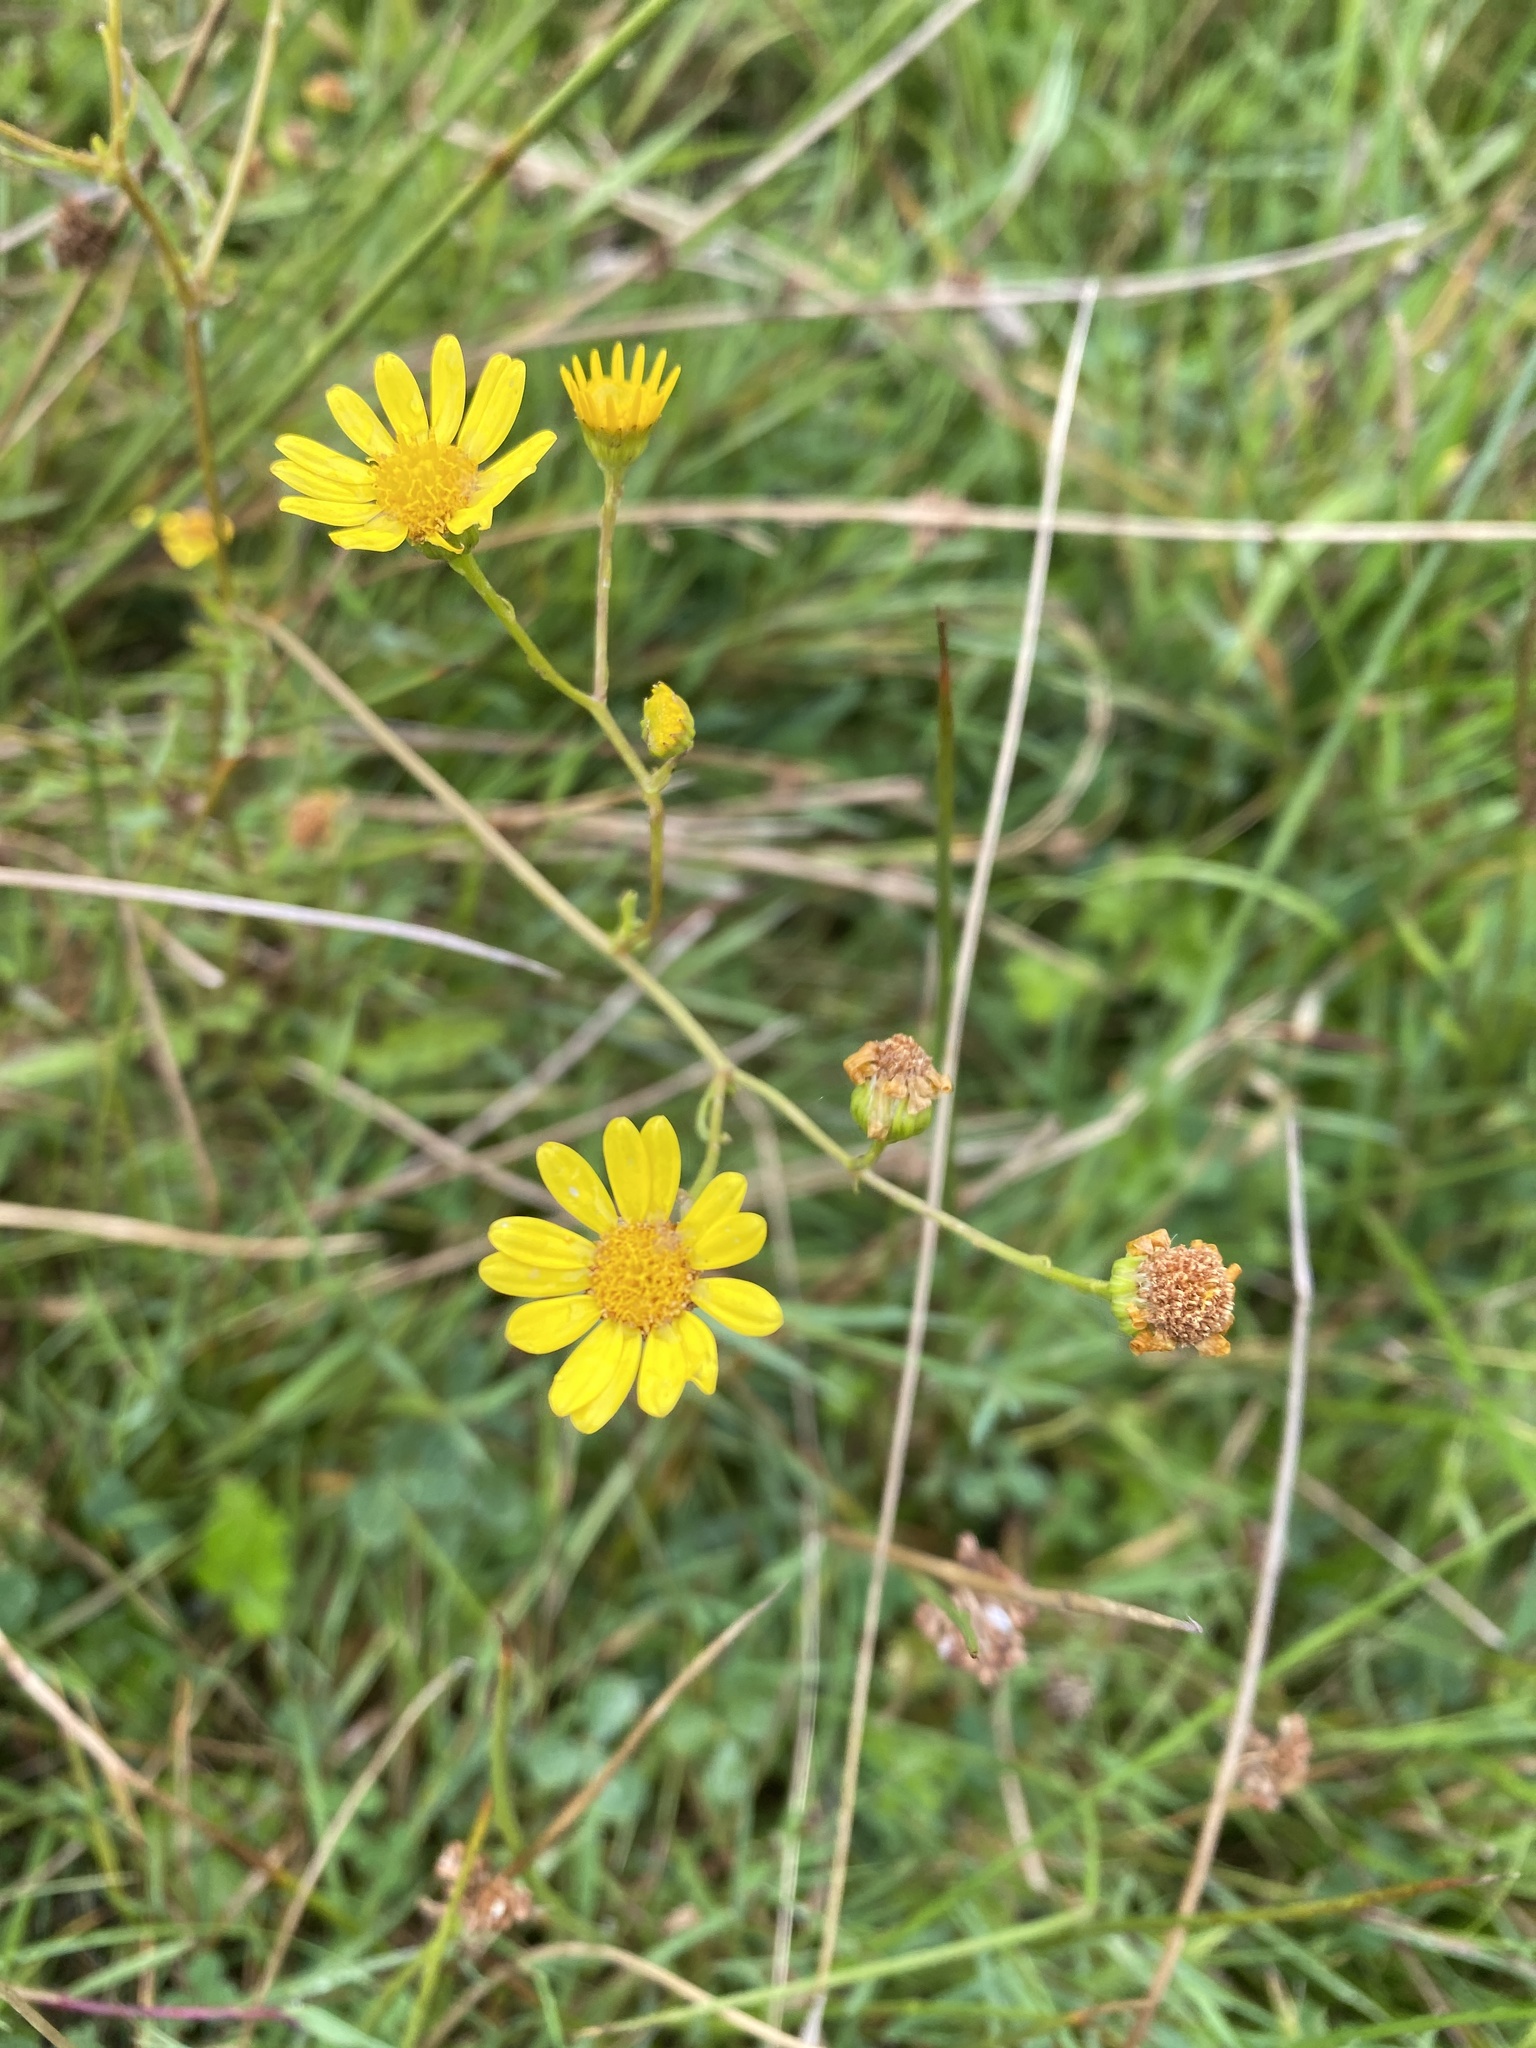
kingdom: Plantae
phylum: Tracheophyta
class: Magnoliopsida
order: Asterales
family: Asteraceae
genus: Senecio
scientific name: Senecio inaequidens
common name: Narrow-leaved ragwort
